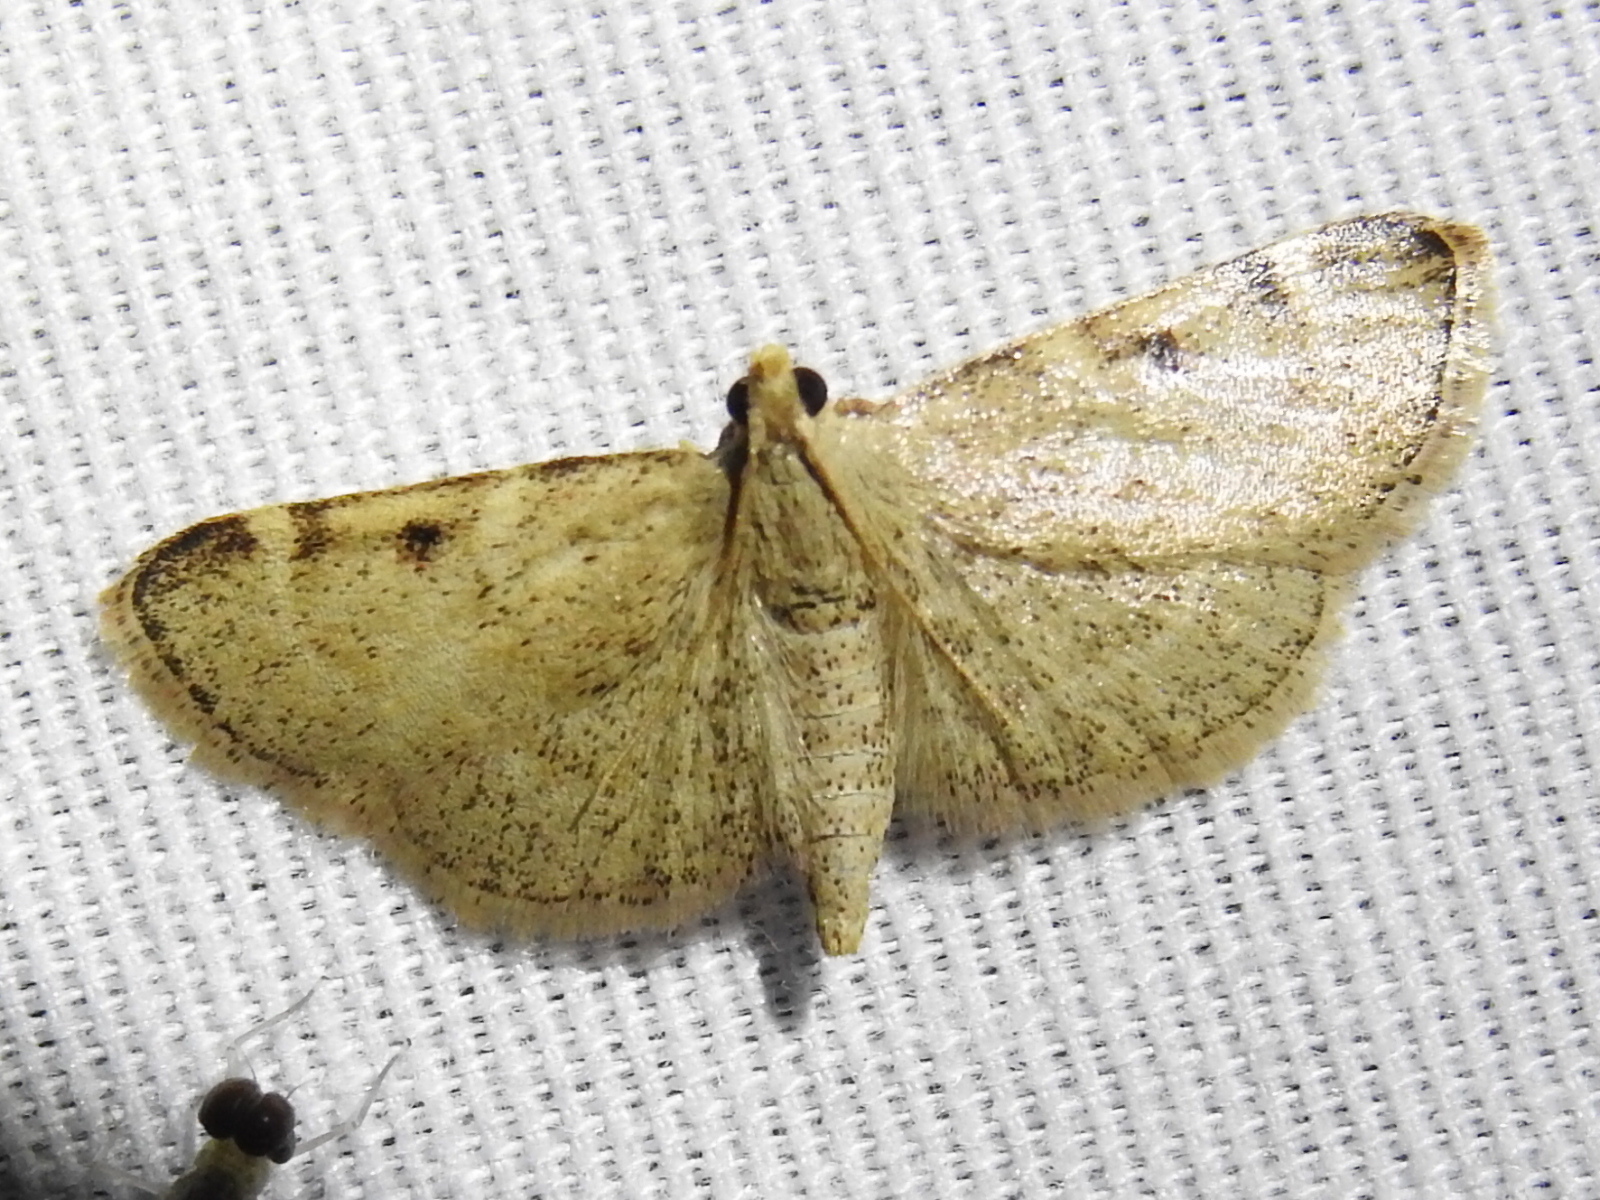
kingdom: Animalia
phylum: Arthropoda
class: Insecta
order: Lepidoptera
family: Pyralidae
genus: Hypsopygia
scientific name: Hypsopygia
